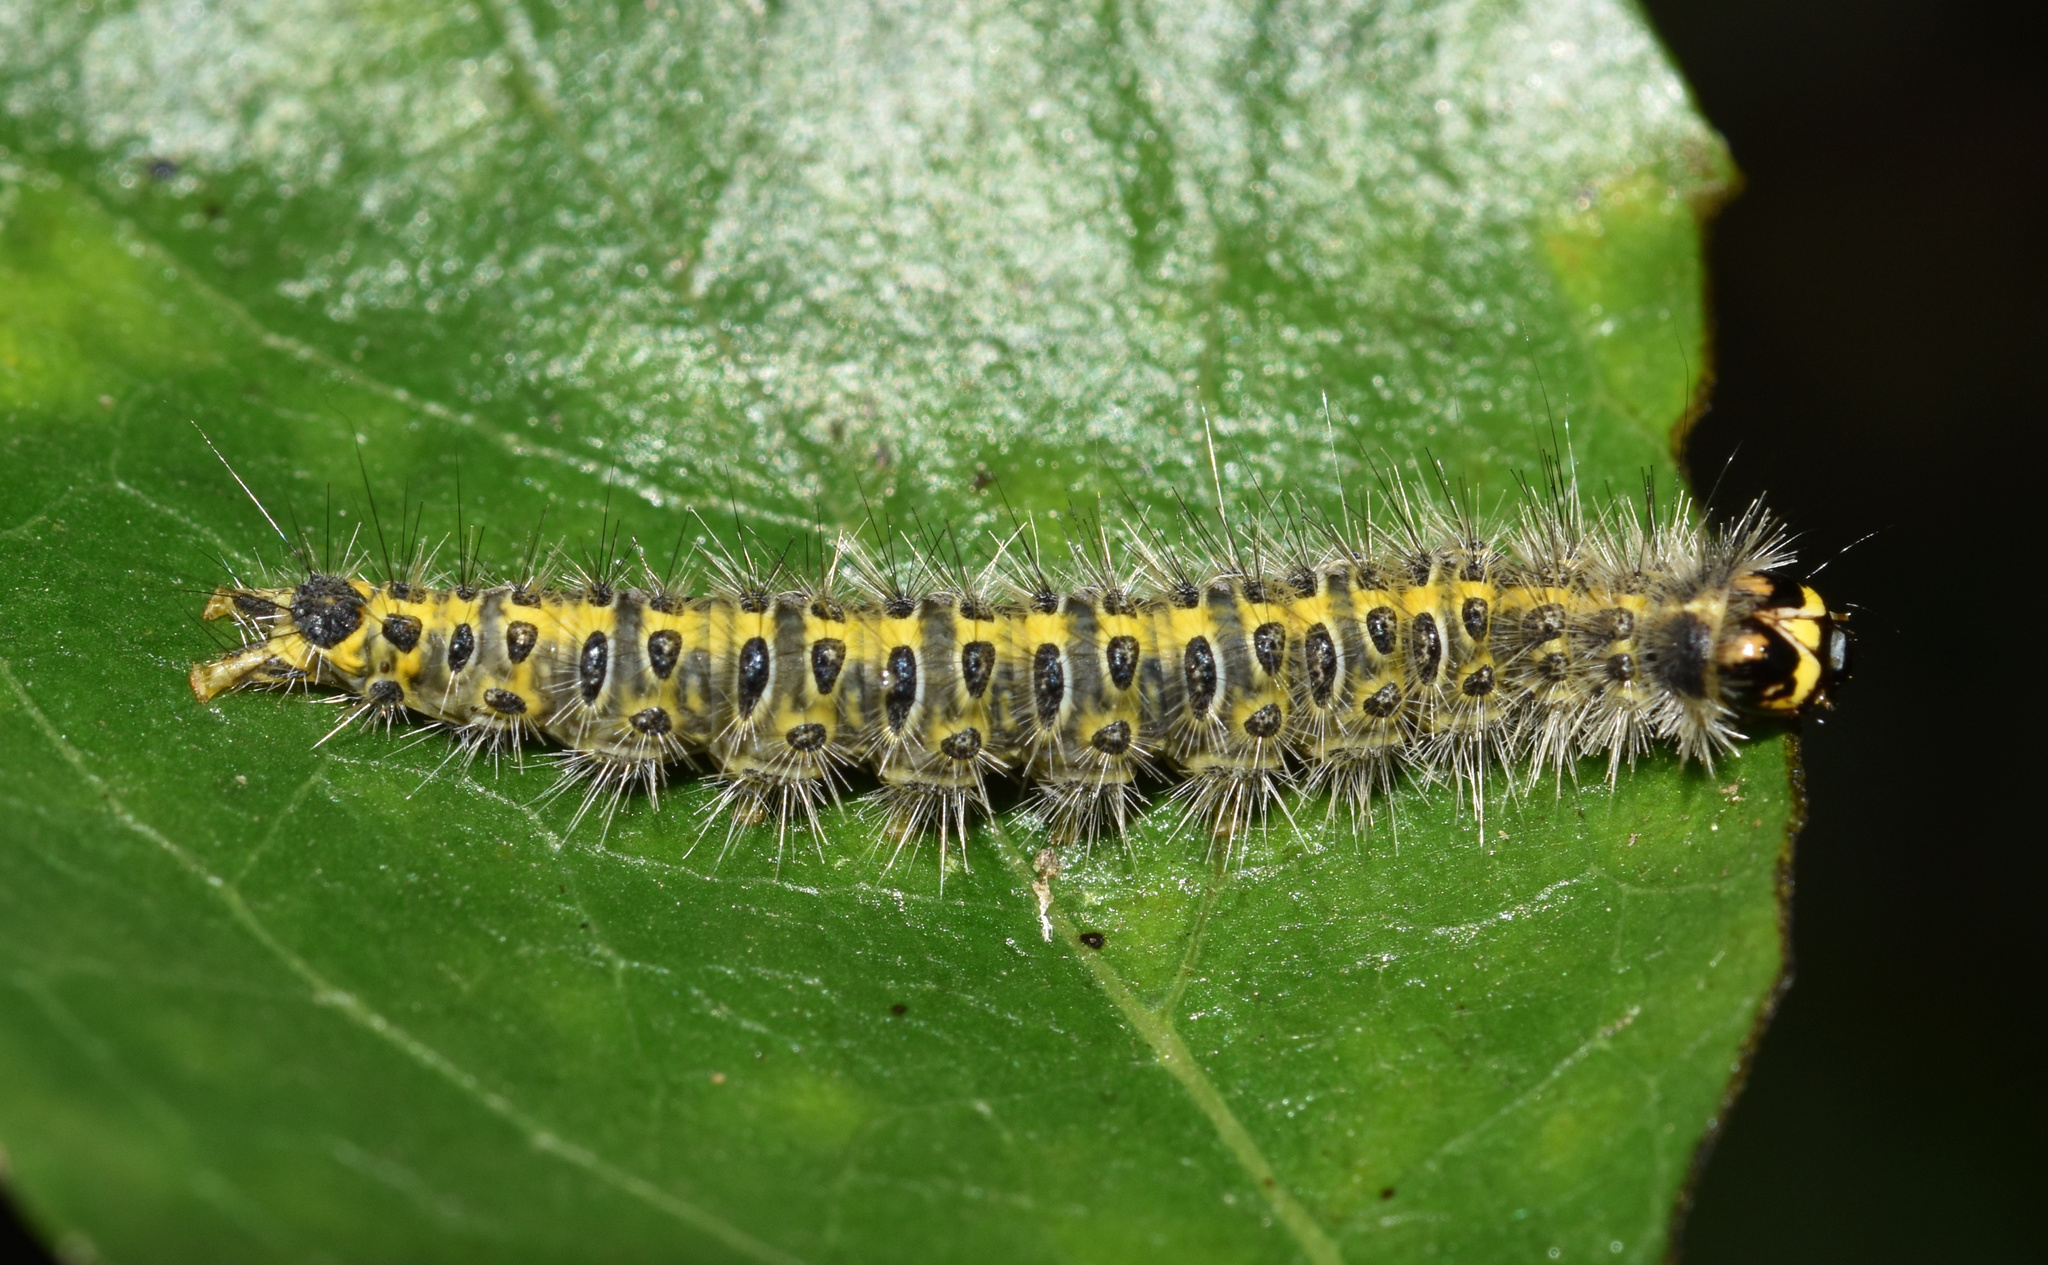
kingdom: Animalia
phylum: Arthropoda
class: Insecta
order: Lepidoptera
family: Ethmiidae
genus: Ethmia
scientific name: Ethmia coscineutis
